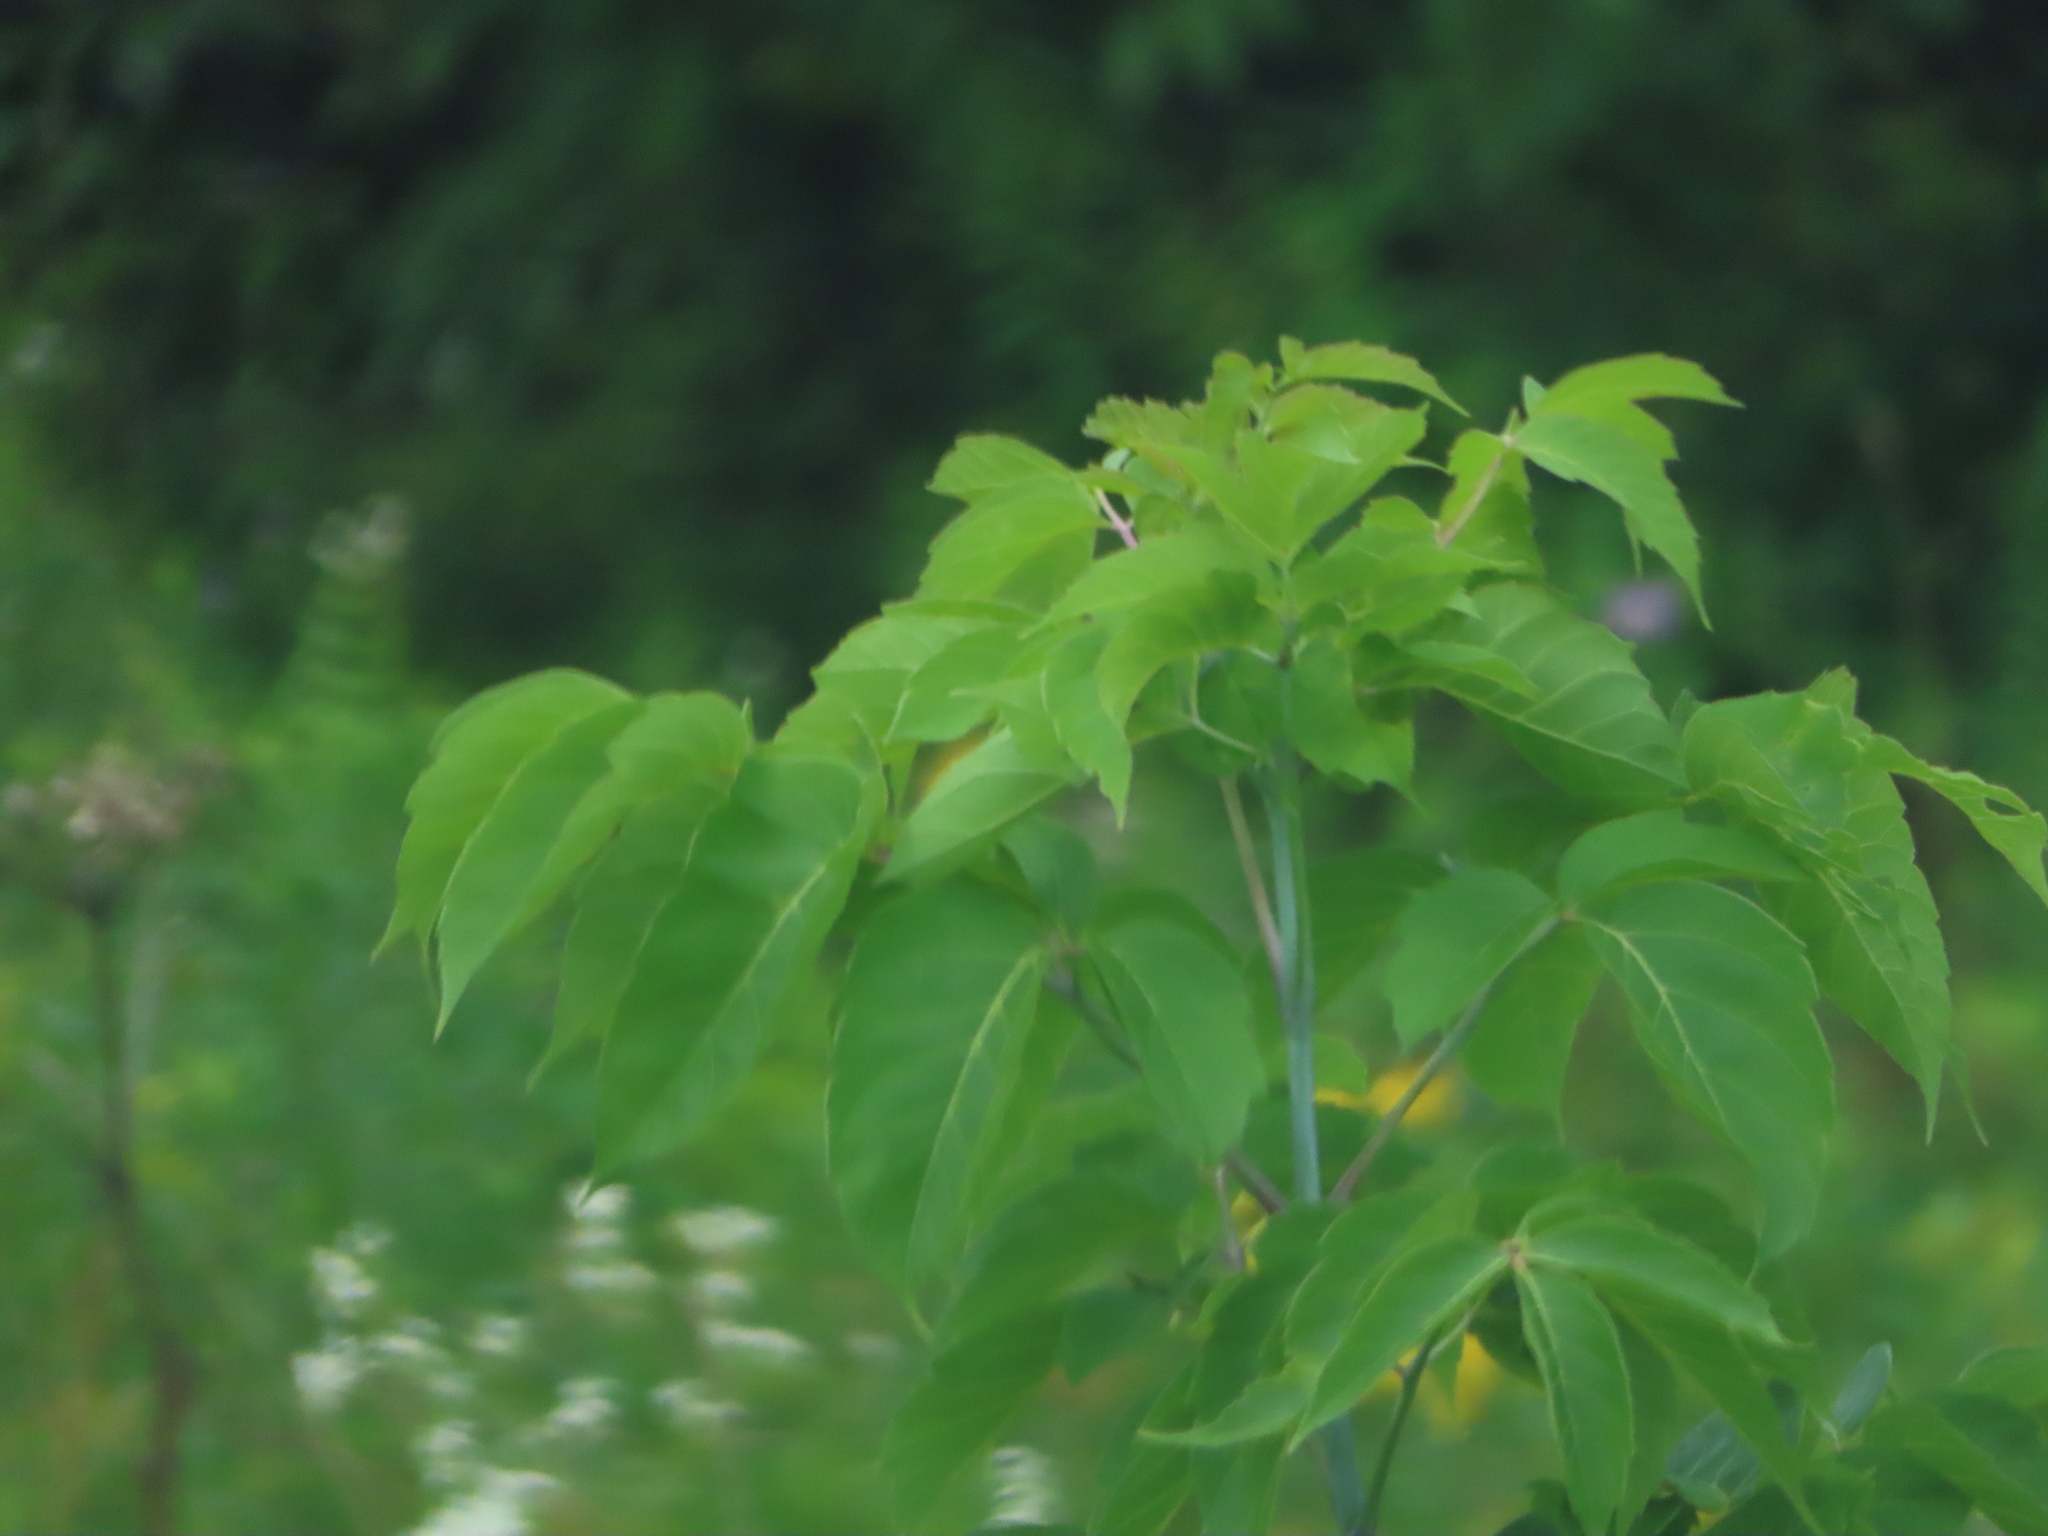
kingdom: Plantae
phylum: Tracheophyta
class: Magnoliopsida
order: Sapindales
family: Sapindaceae
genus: Acer
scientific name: Acer negundo
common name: Ashleaf maple
